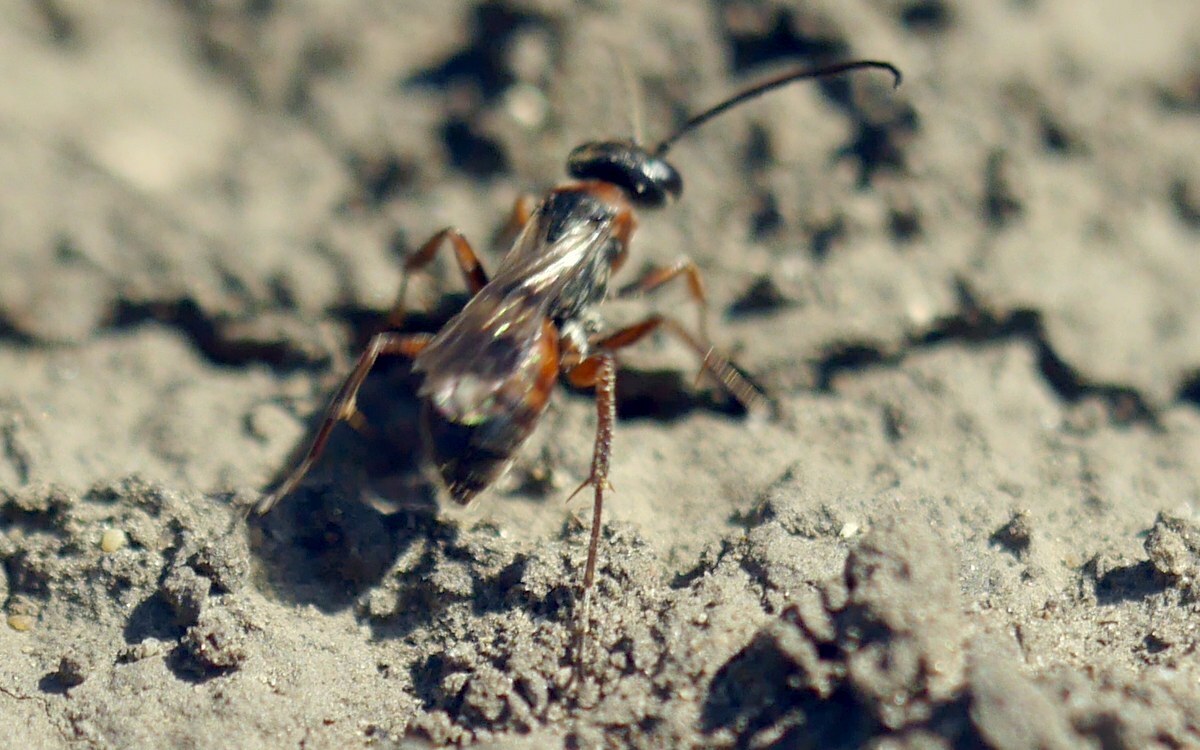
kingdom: Animalia
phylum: Arthropoda
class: Insecta
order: Hymenoptera
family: Pompilidae
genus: Priocnemis
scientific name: Priocnemis minuta
